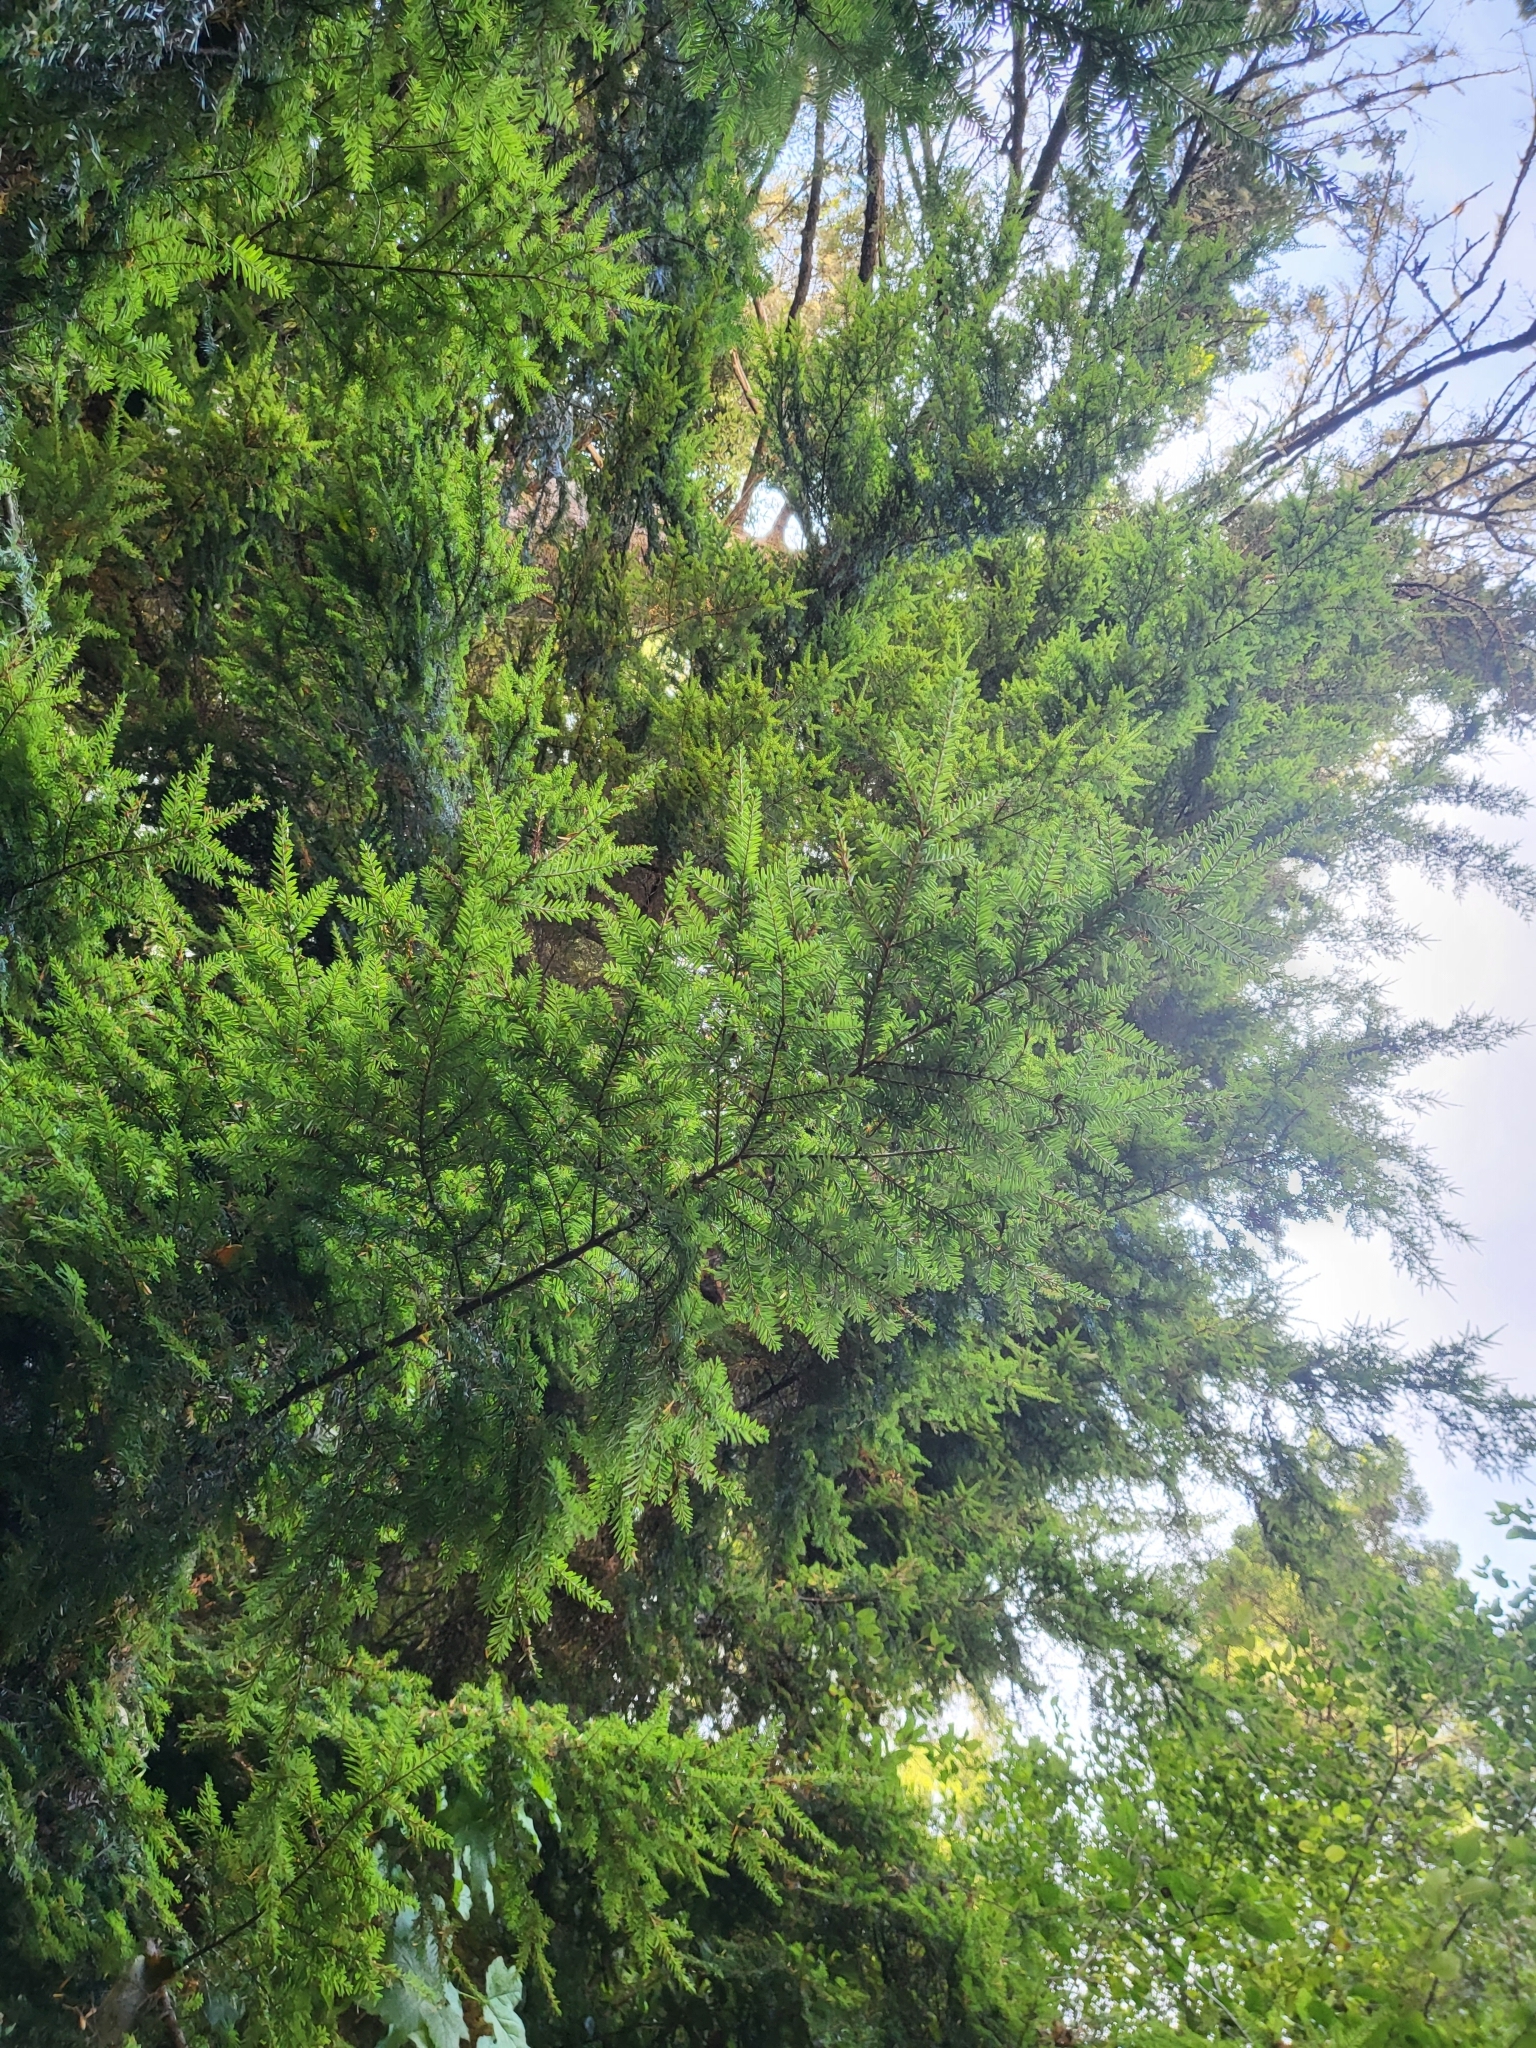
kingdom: Plantae
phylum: Tracheophyta
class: Pinopsida
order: Pinales
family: Pinaceae
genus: Tsuga
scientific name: Tsuga heterophylla
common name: Western hemlock
